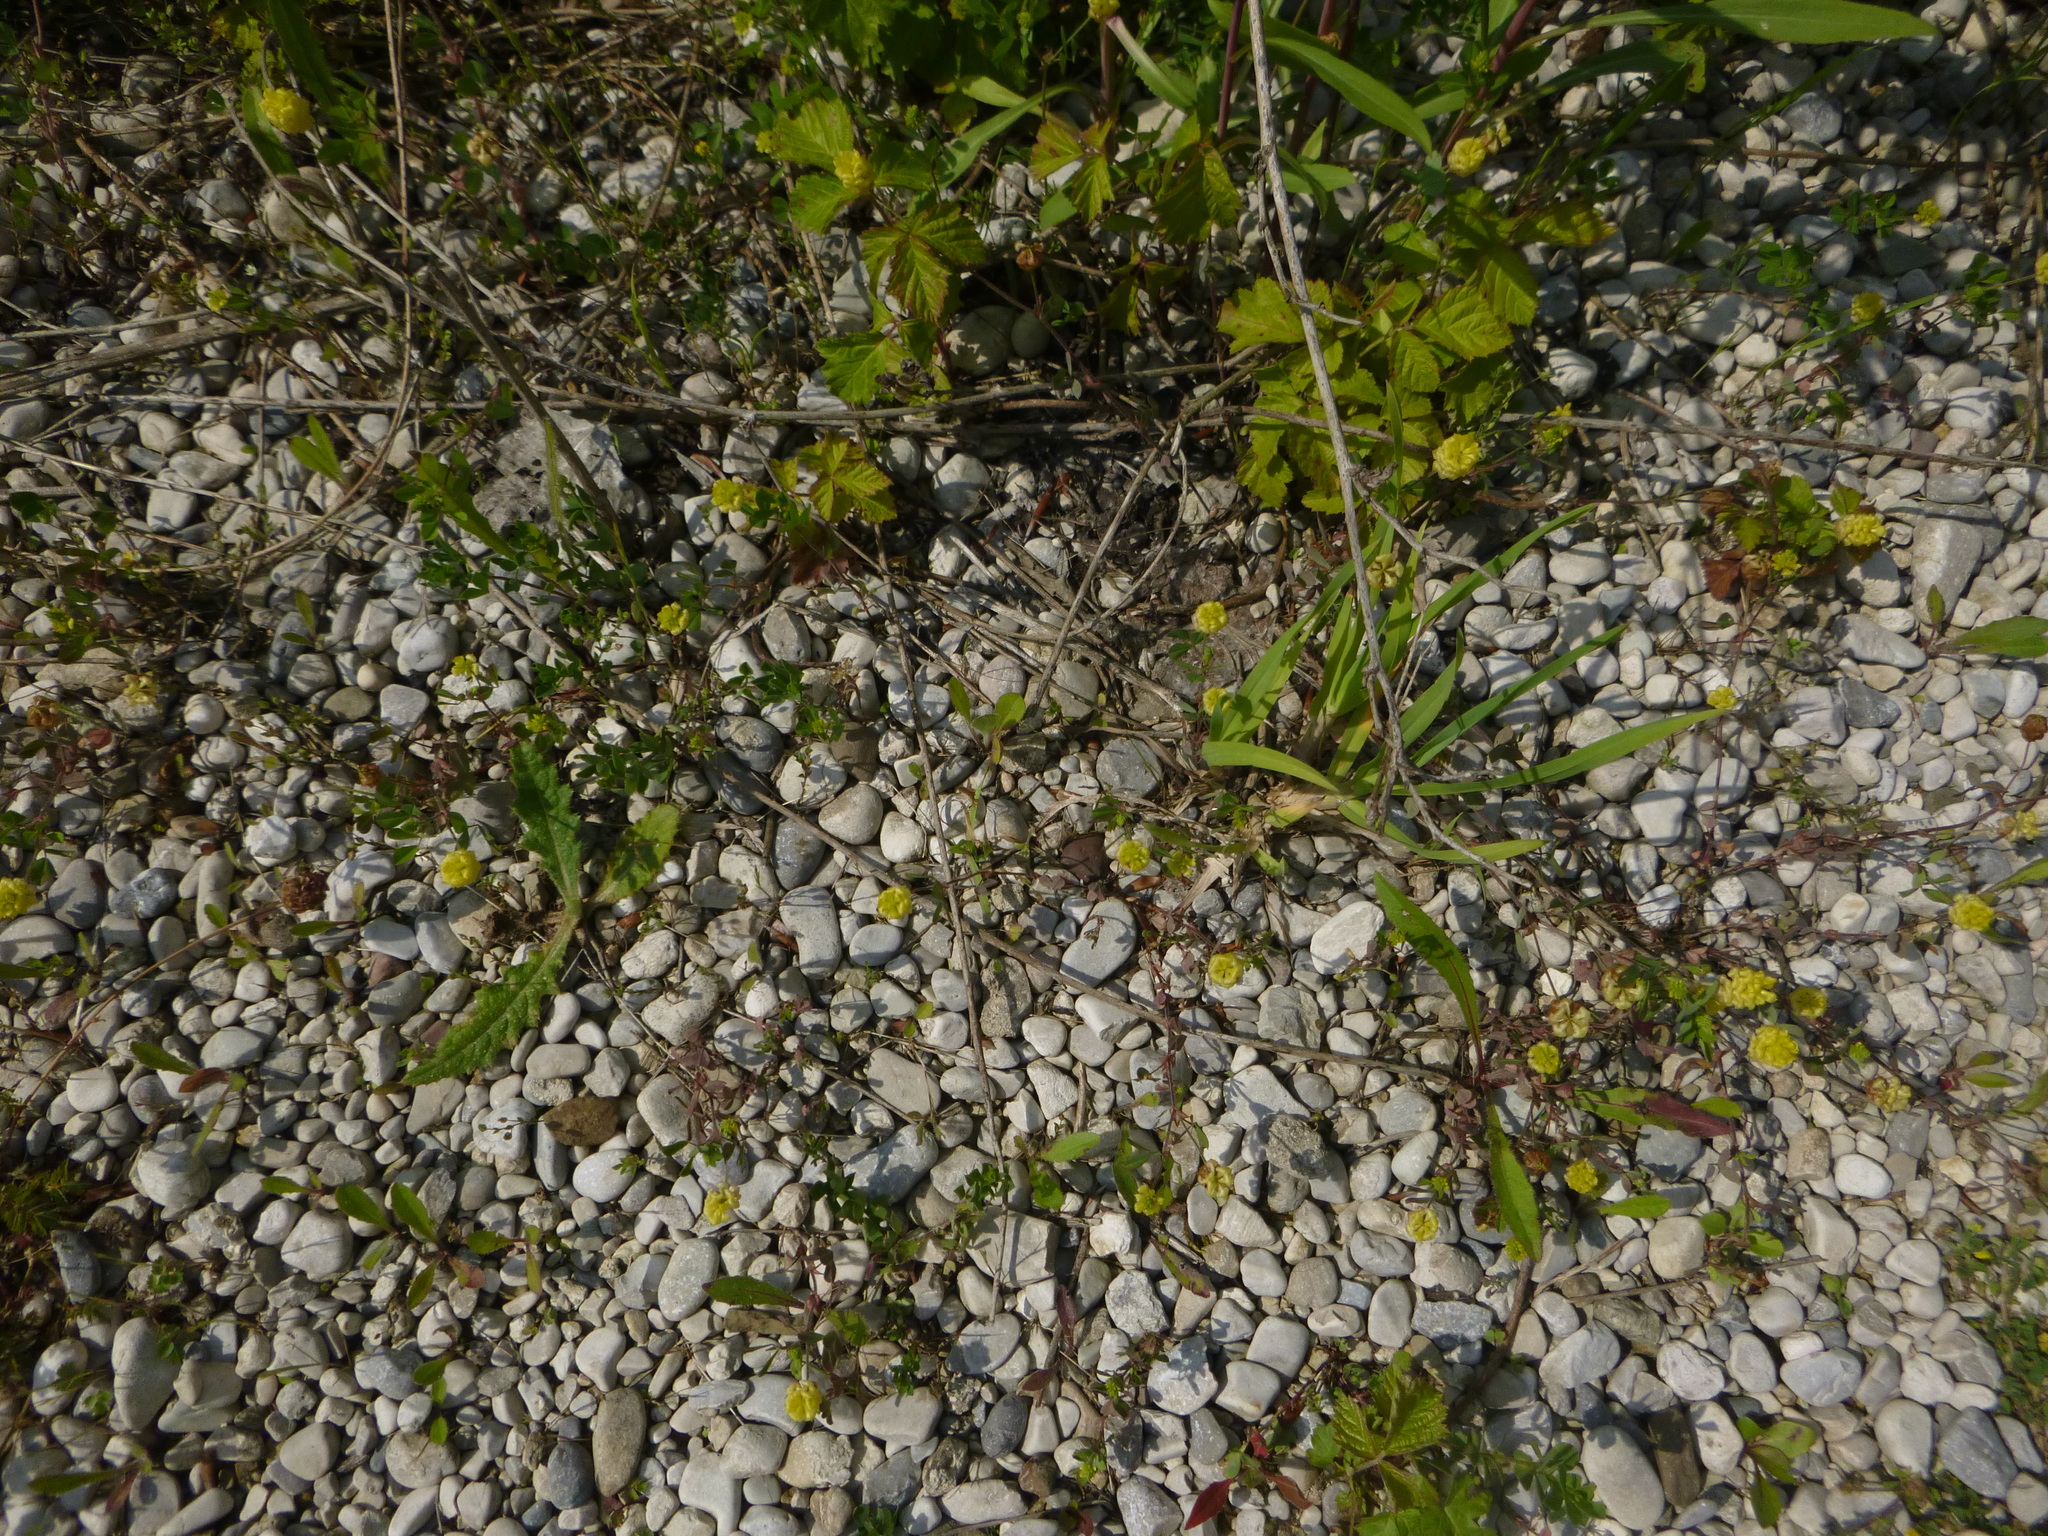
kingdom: Plantae
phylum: Tracheophyta
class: Magnoliopsida
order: Fabales
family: Fabaceae
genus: Trifolium
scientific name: Trifolium campestre
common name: Field clover
